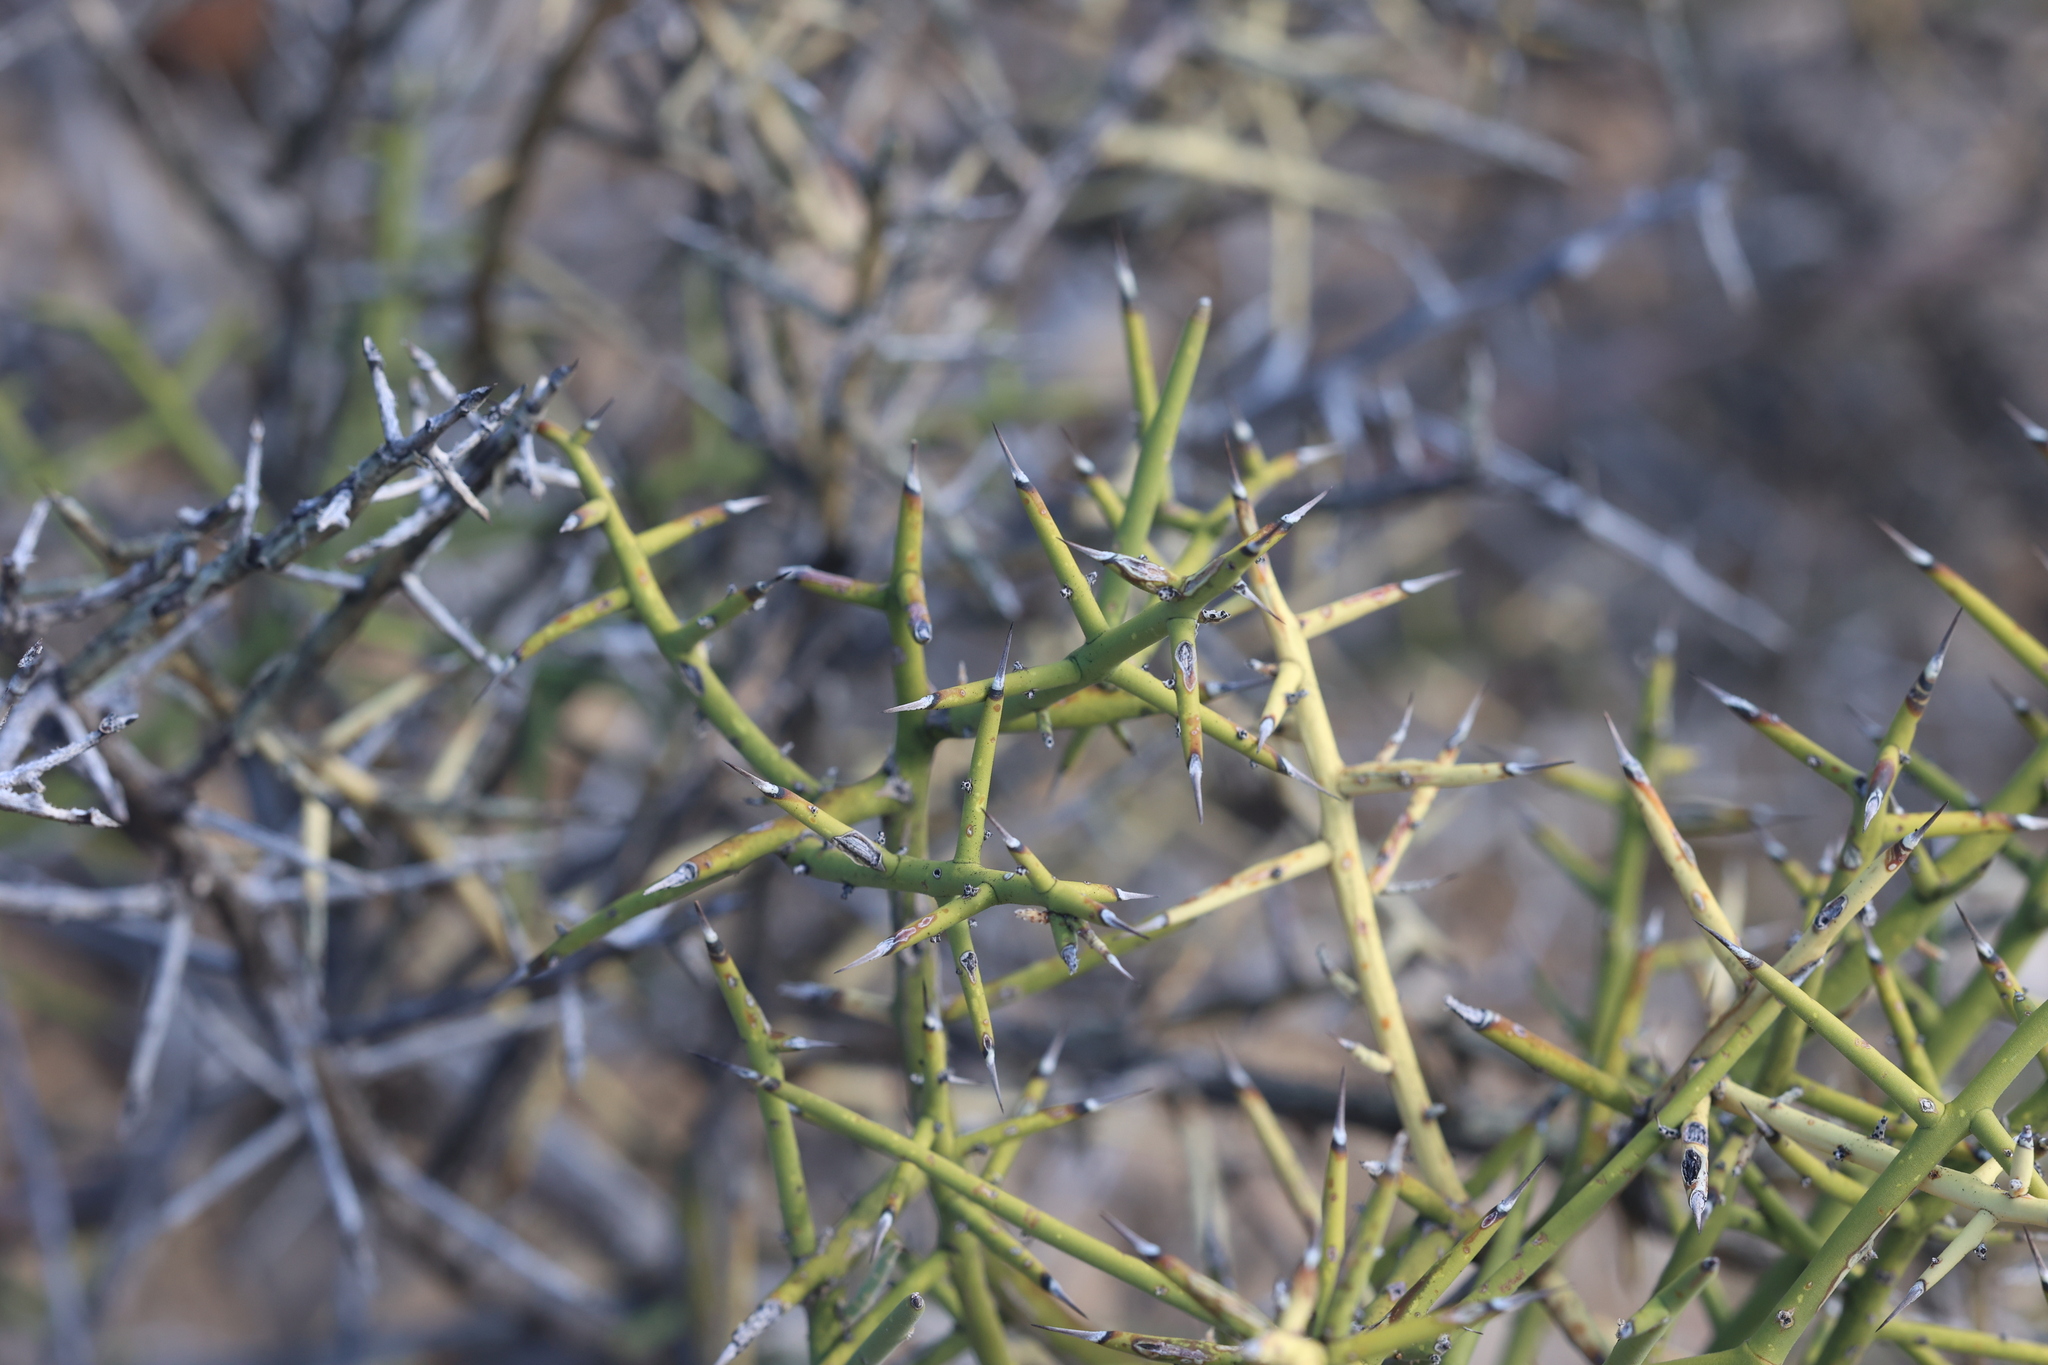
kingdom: Plantae
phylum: Tracheophyta
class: Magnoliopsida
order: Brassicales
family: Koeberliniaceae
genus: Koeberlinia
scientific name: Koeberlinia spinosa
